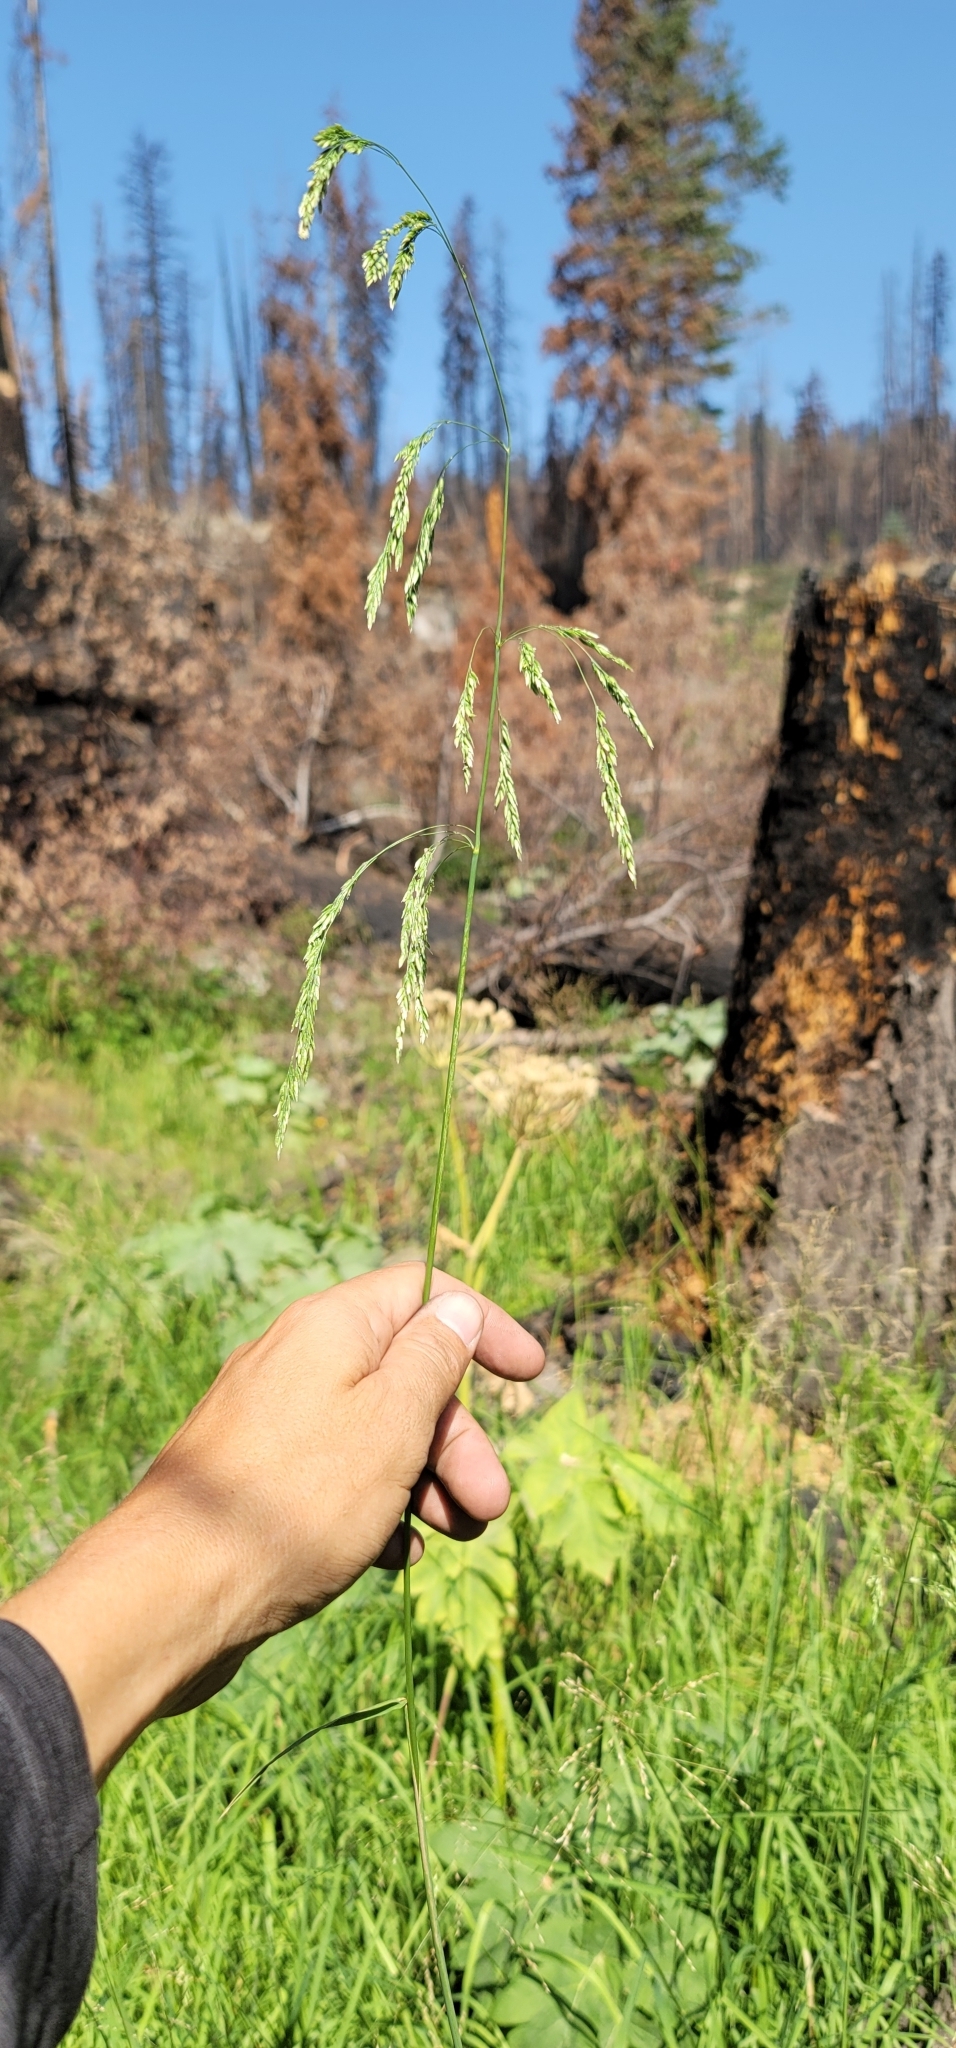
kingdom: Plantae
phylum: Tracheophyta
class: Liliopsida
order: Poales
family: Poaceae
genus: Cinna
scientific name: Cinna bolanderi
